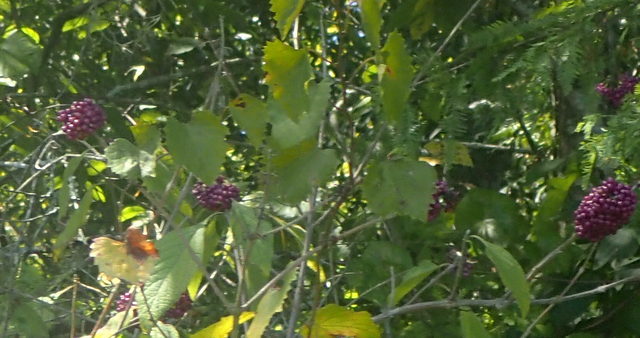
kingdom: Plantae
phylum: Tracheophyta
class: Magnoliopsida
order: Lamiales
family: Lamiaceae
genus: Callicarpa
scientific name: Callicarpa americana
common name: American beautyberry
